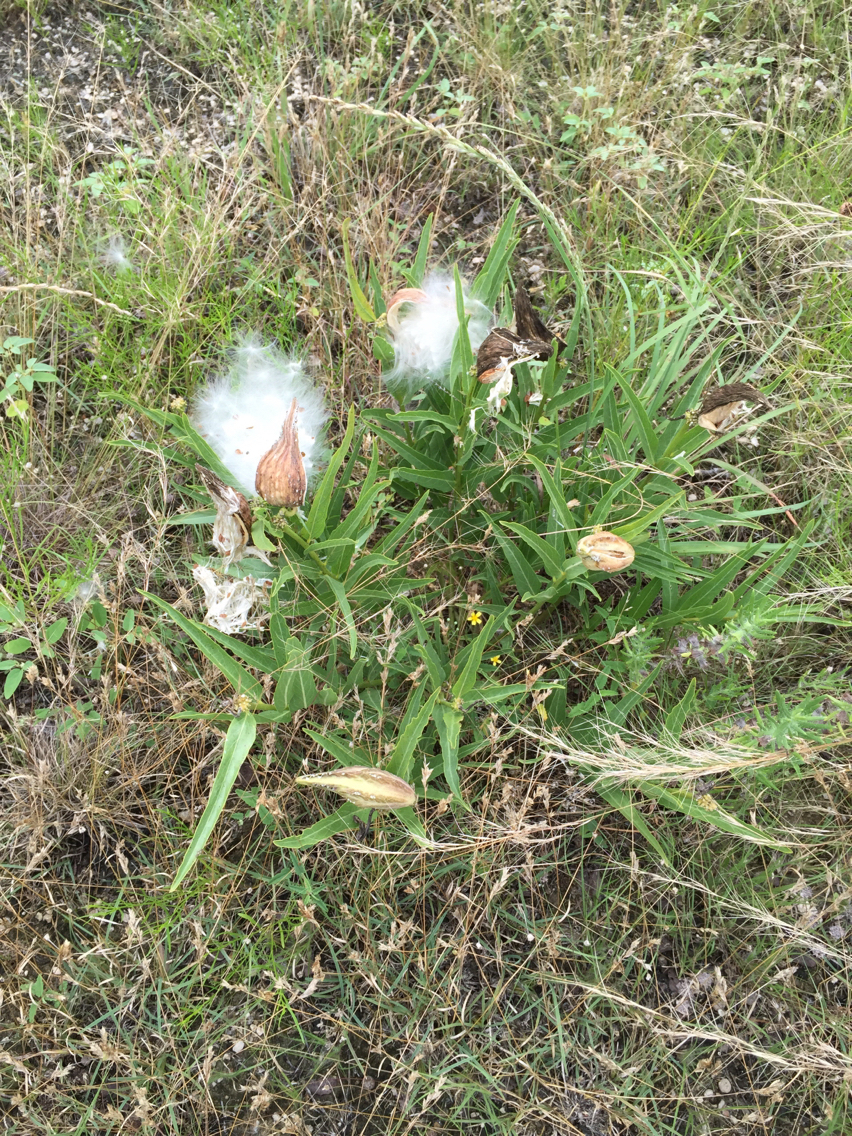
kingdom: Plantae
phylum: Tracheophyta
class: Magnoliopsida
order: Gentianales
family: Apocynaceae
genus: Asclepias
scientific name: Asclepias asperula
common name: Antelope horns
